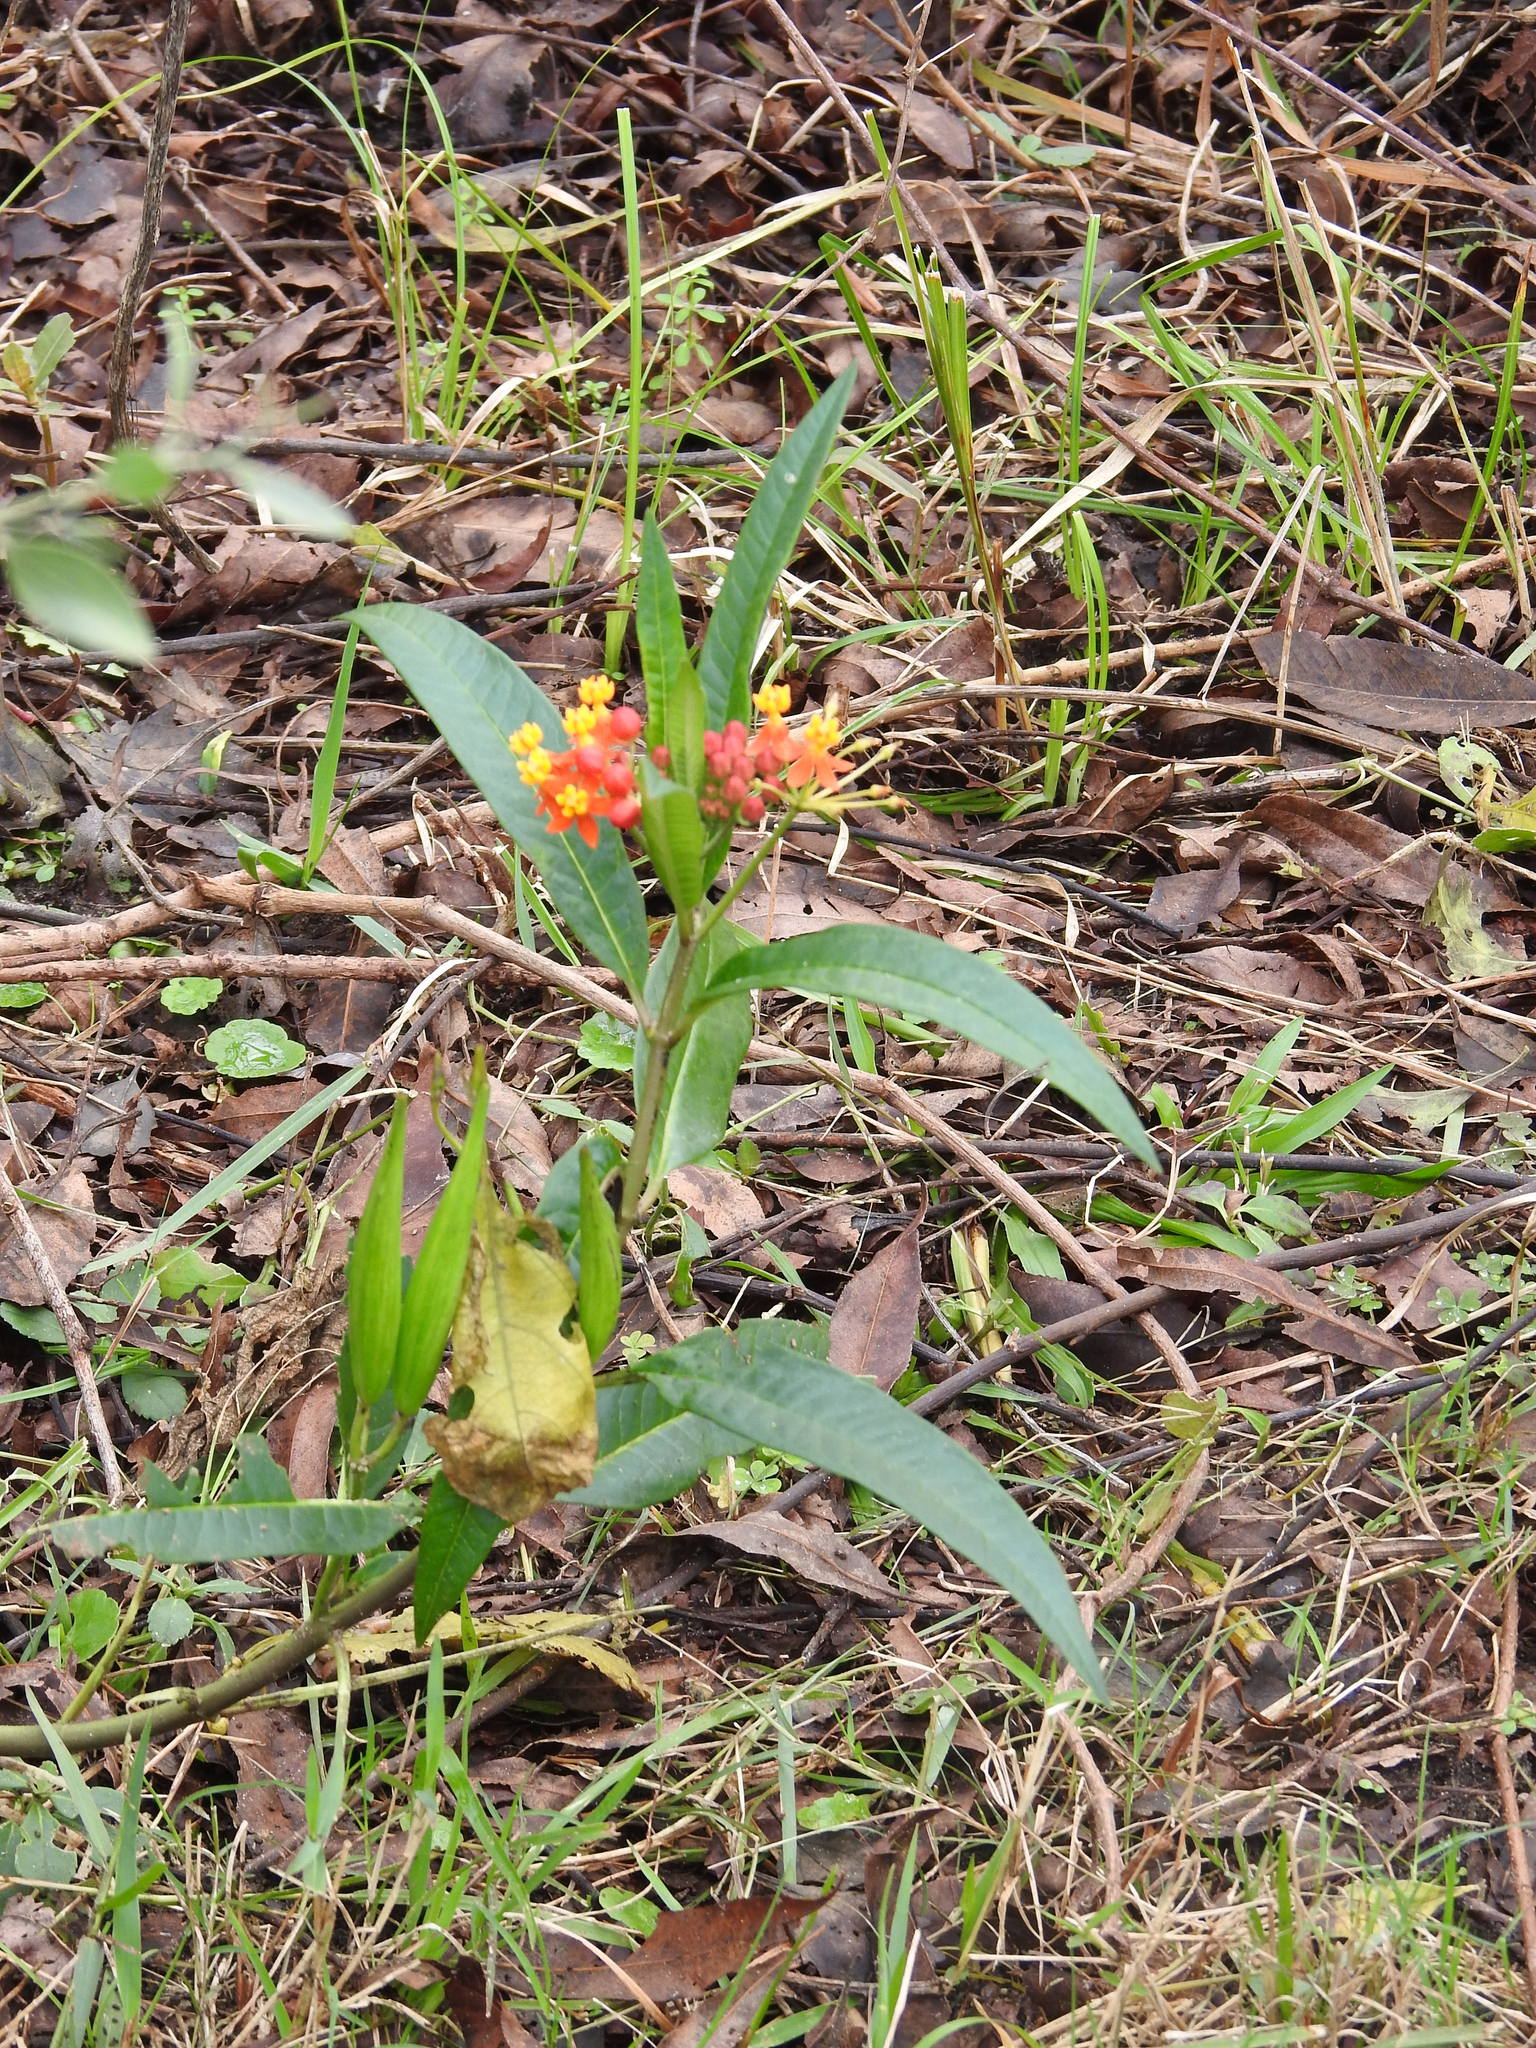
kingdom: Plantae
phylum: Tracheophyta
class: Magnoliopsida
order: Gentianales
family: Apocynaceae
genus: Asclepias
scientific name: Asclepias curassavica
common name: Bloodflower
